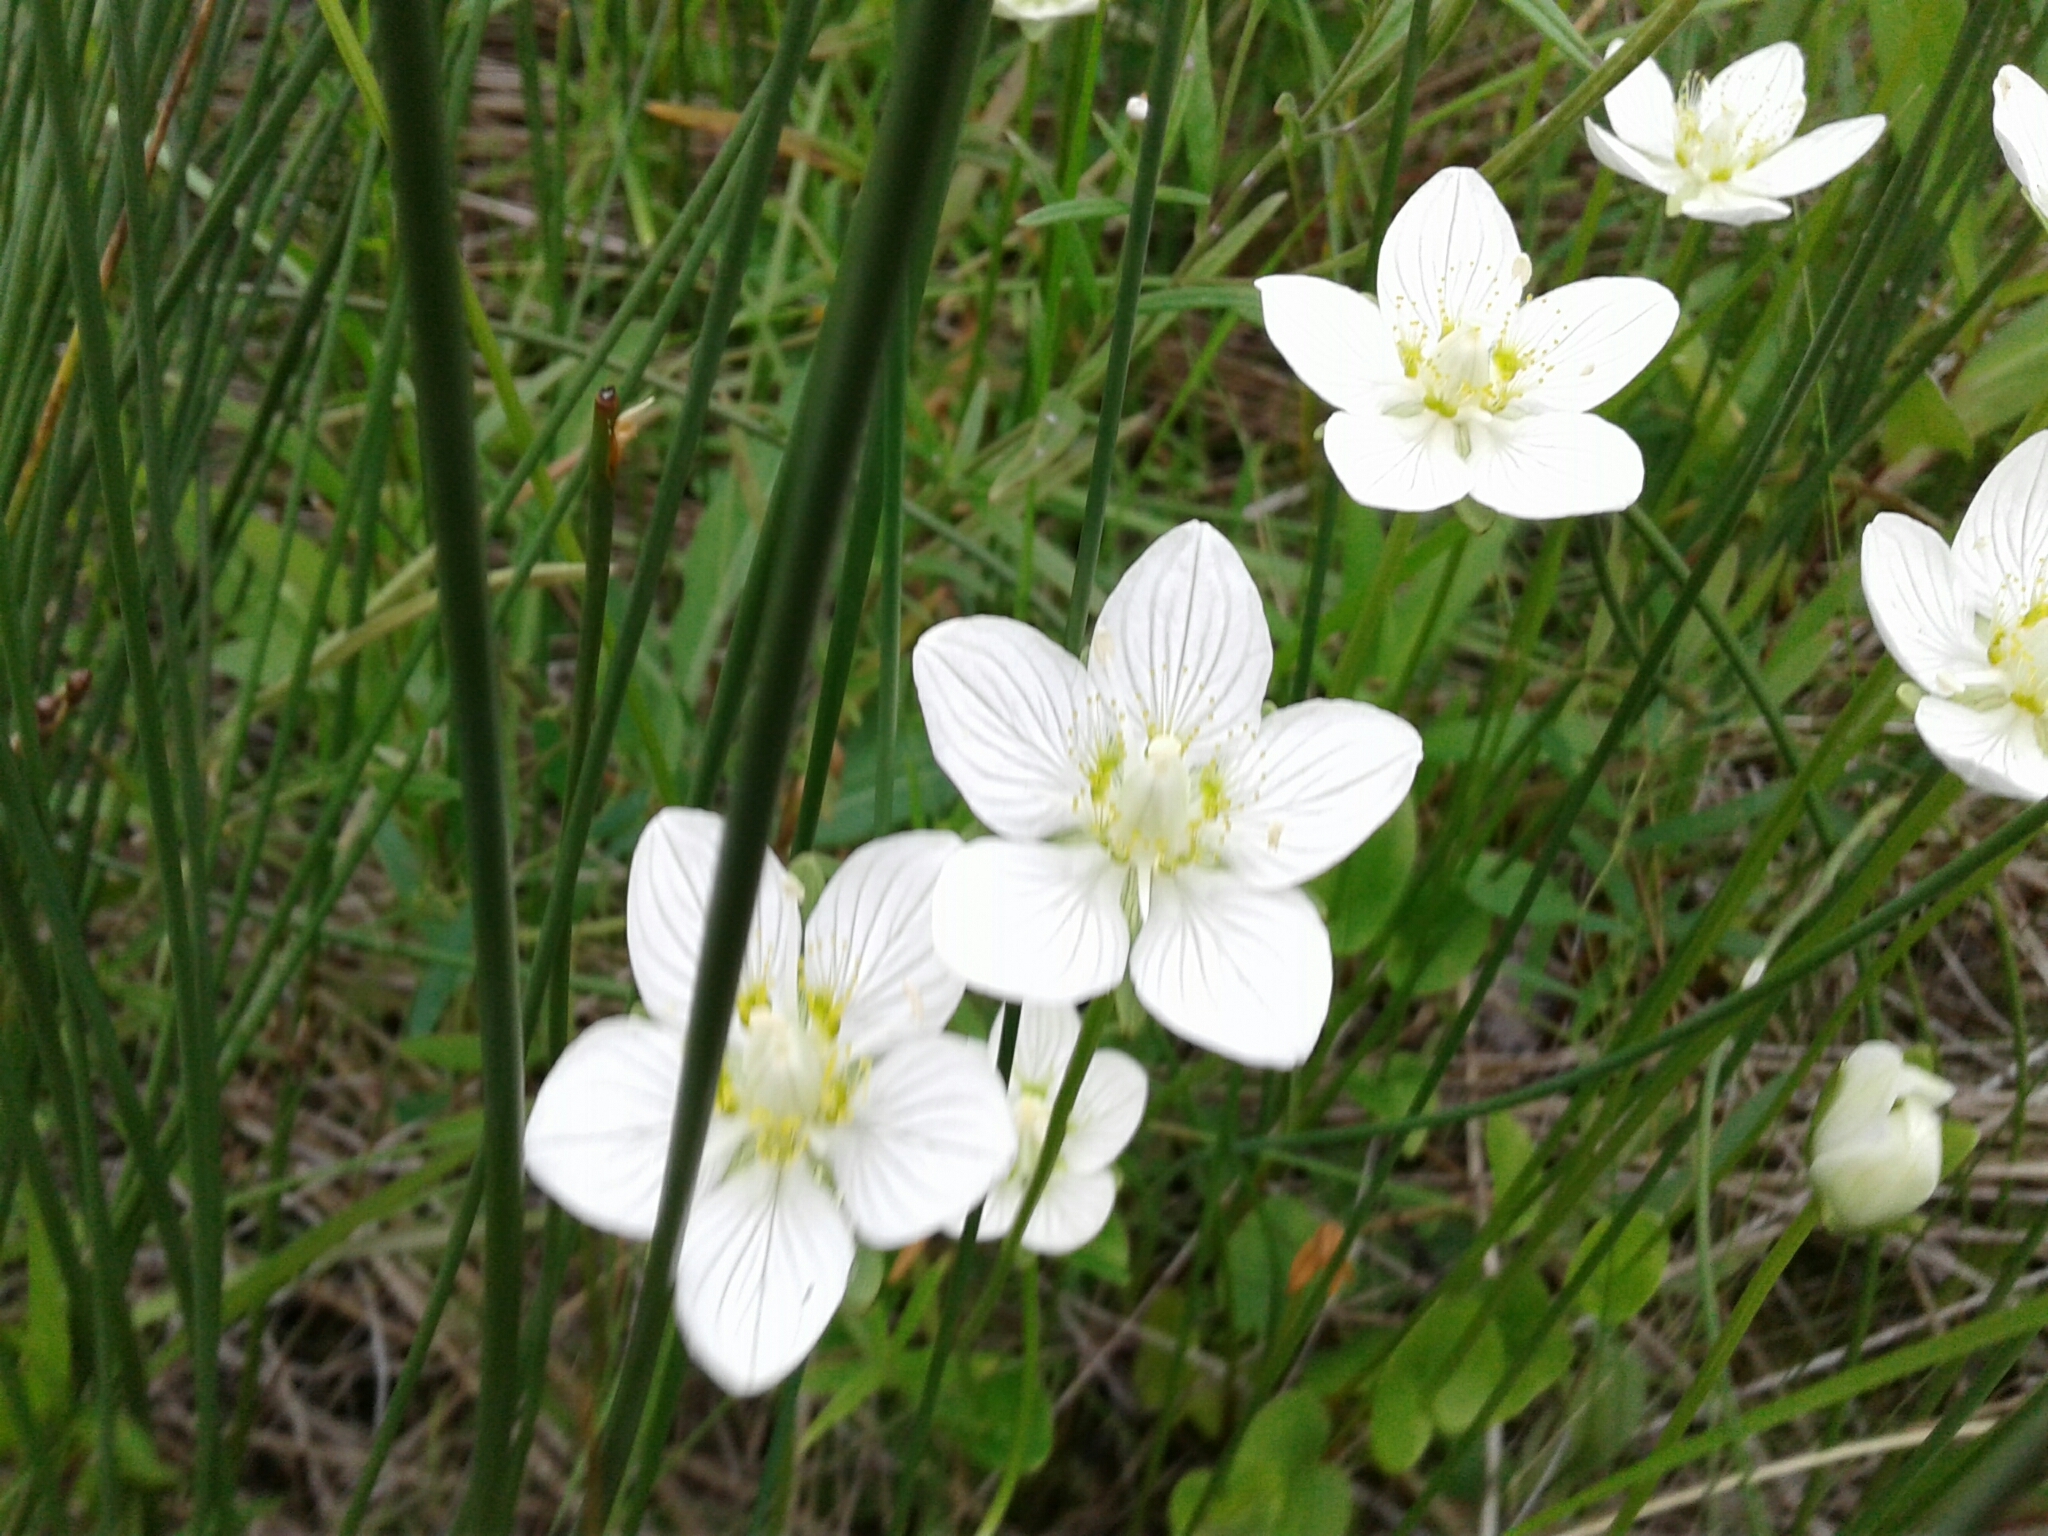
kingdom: Plantae
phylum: Tracheophyta
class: Magnoliopsida
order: Celastrales
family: Parnassiaceae
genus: Parnassia
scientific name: Parnassia palustris
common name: Grass-of-parnassus
